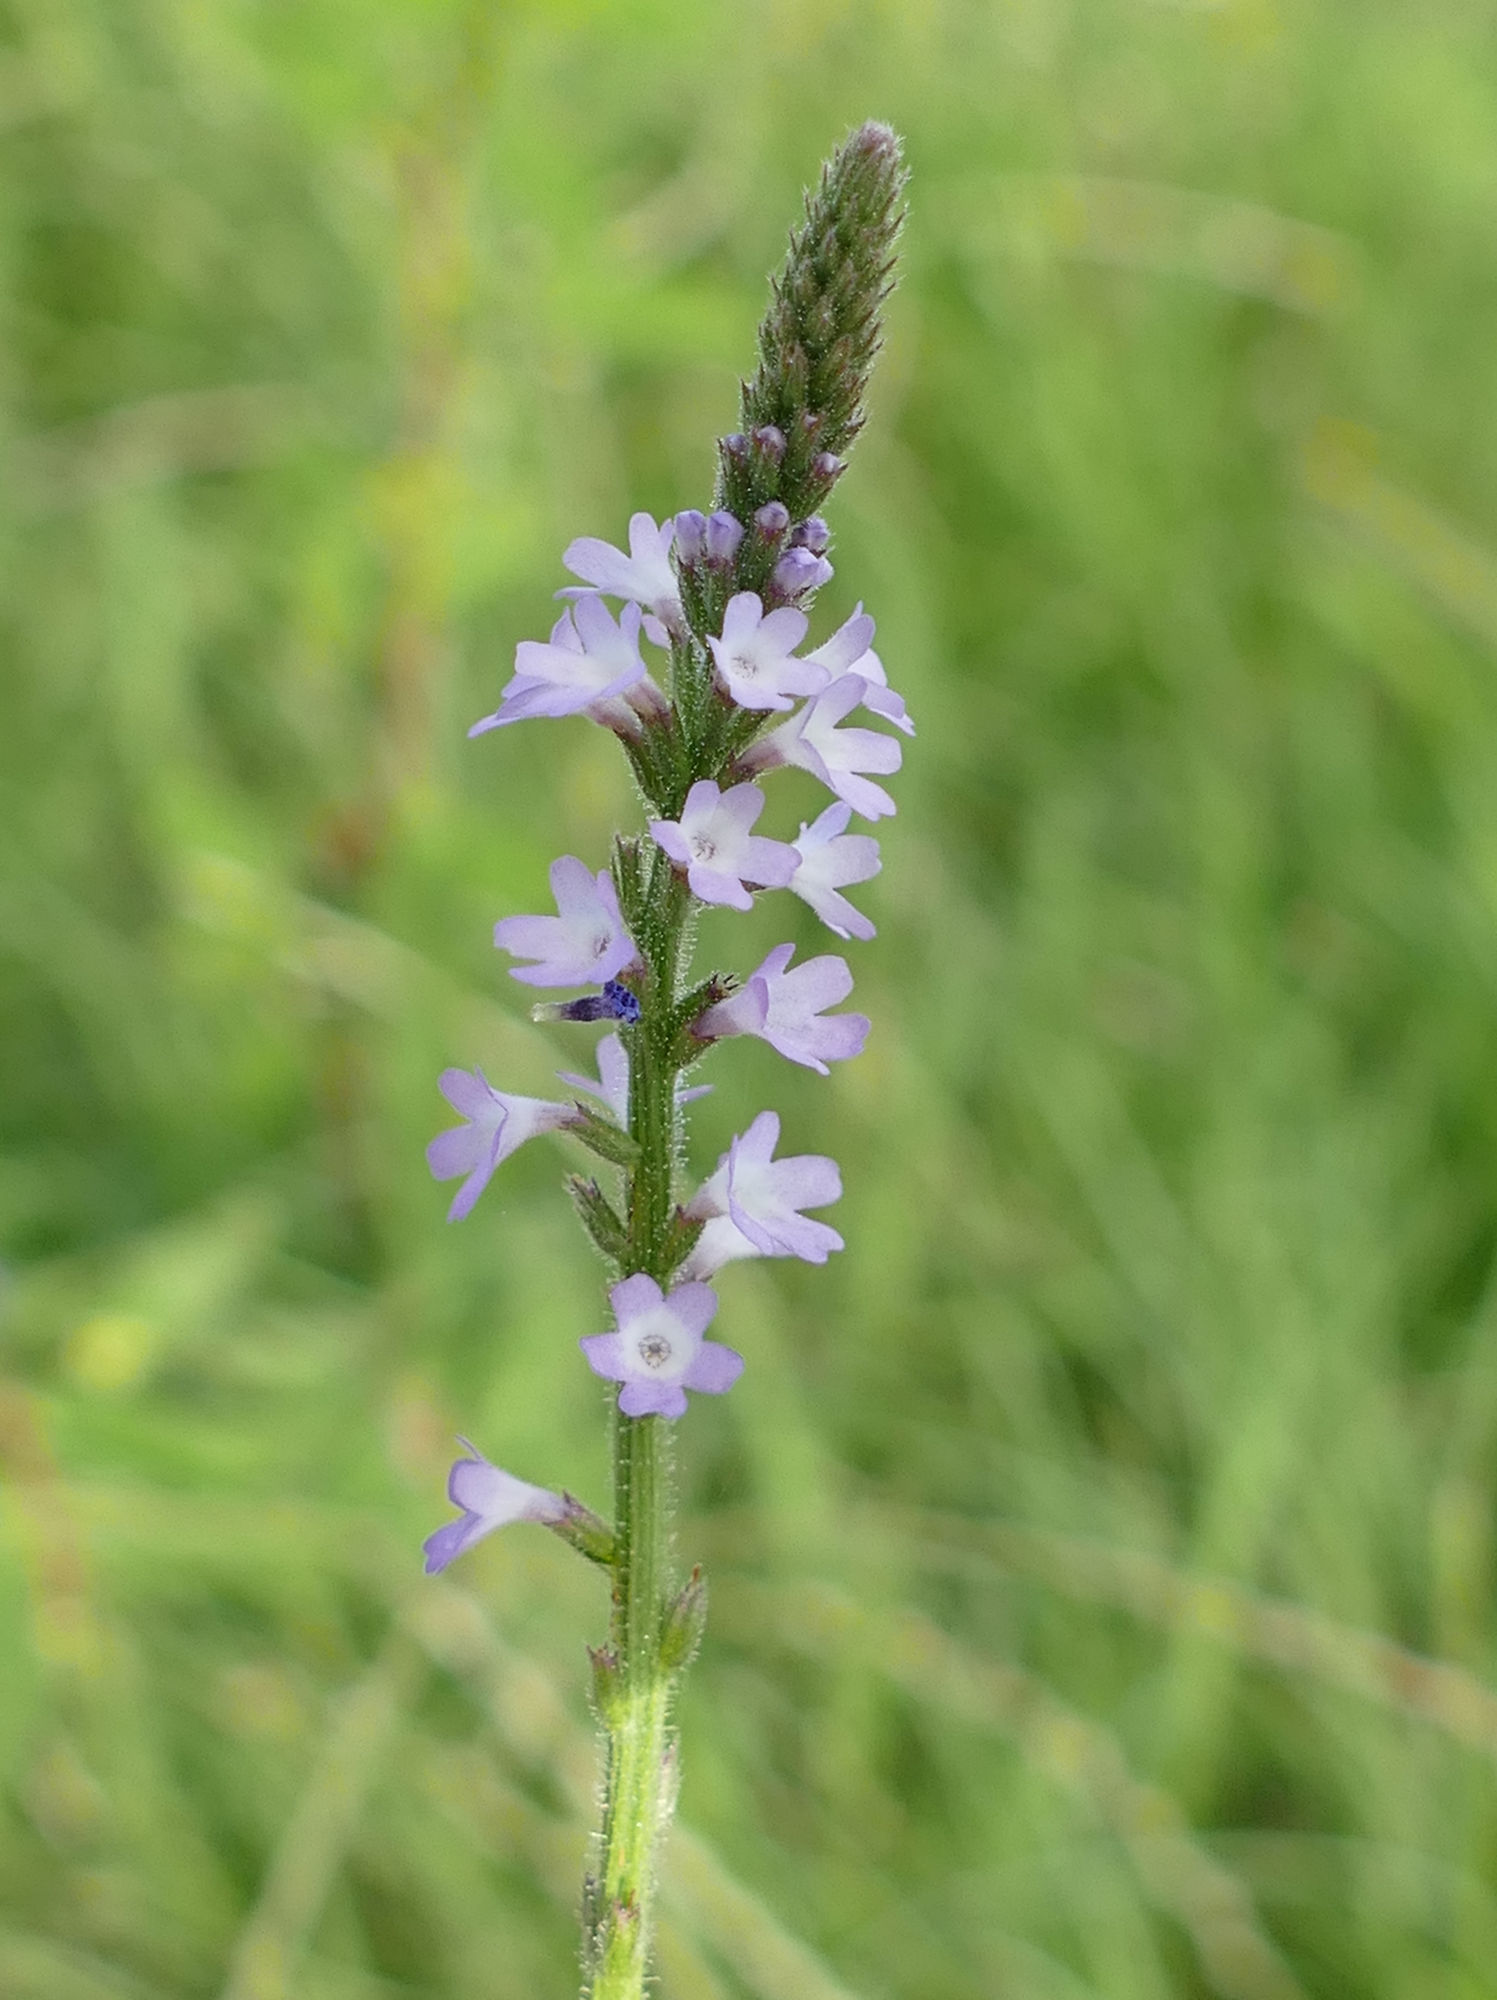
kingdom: Plantae
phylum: Tracheophyta
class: Magnoliopsida
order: Lamiales
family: Verbenaceae
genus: Verbena
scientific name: Verbena xutha
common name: Gulf vervain
